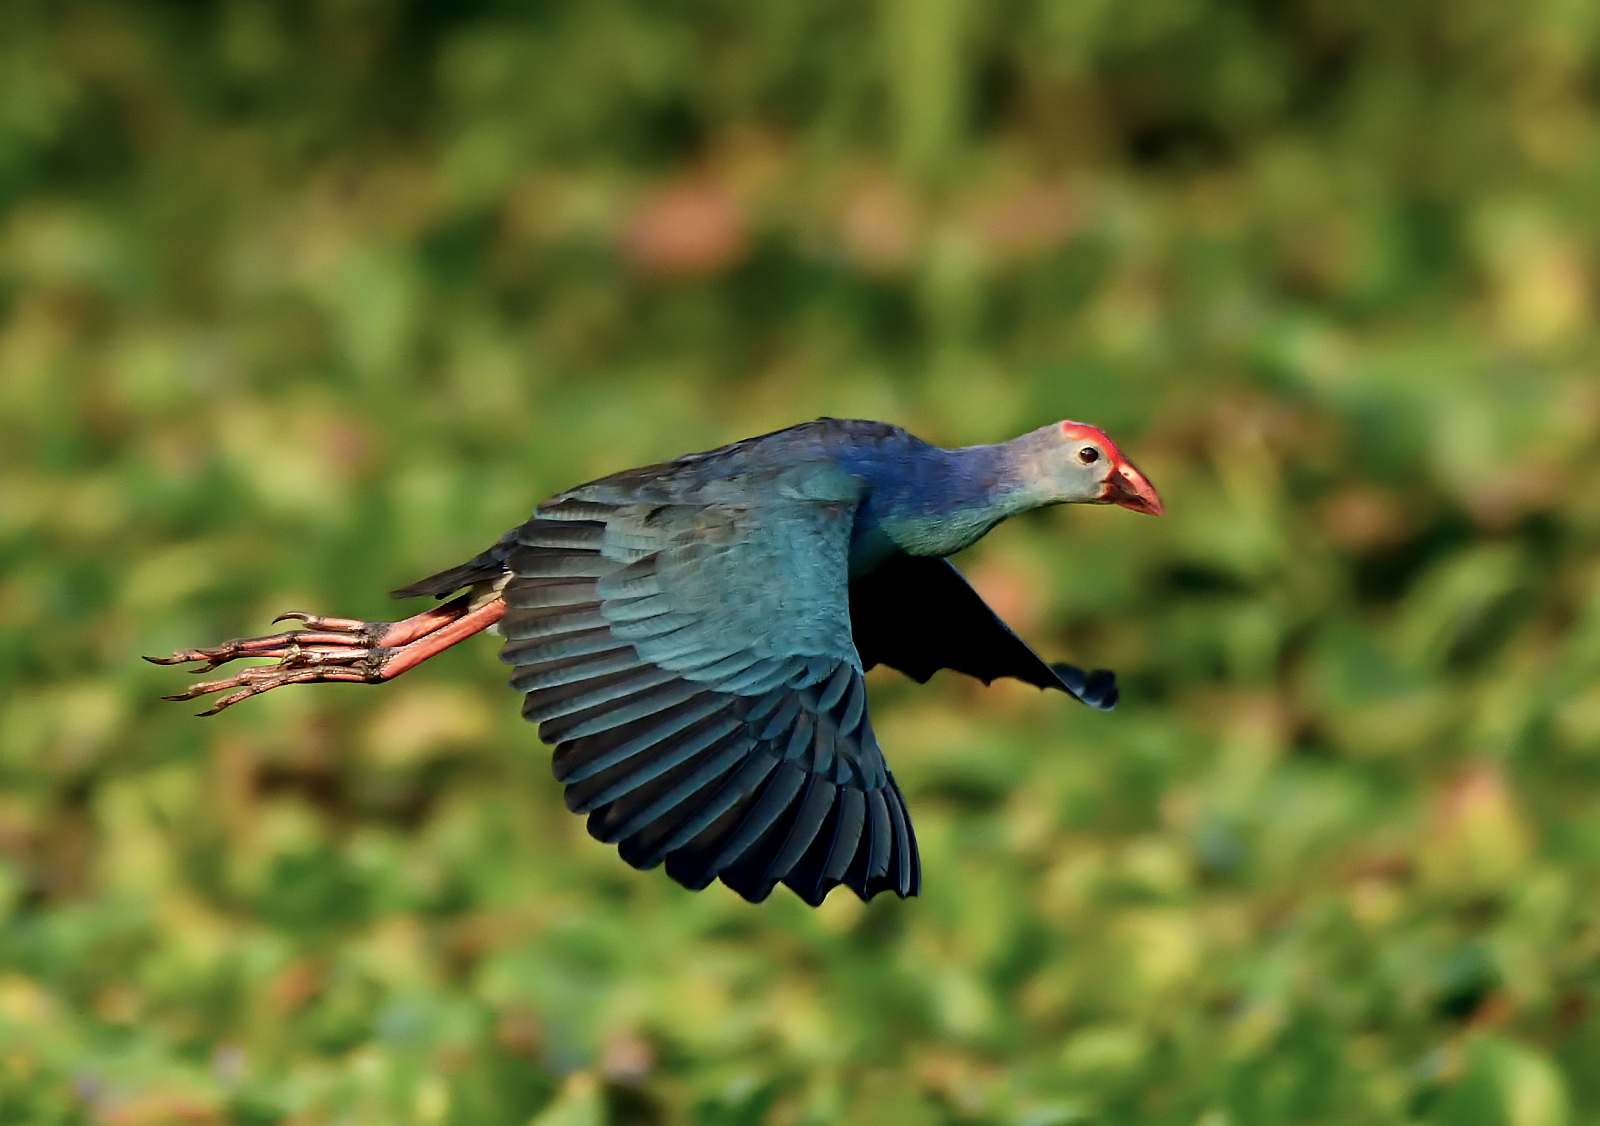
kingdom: Animalia
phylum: Chordata
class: Aves
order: Gruiformes
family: Rallidae
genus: Porphyrio
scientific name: Porphyrio porphyrio
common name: Purple swamphen
